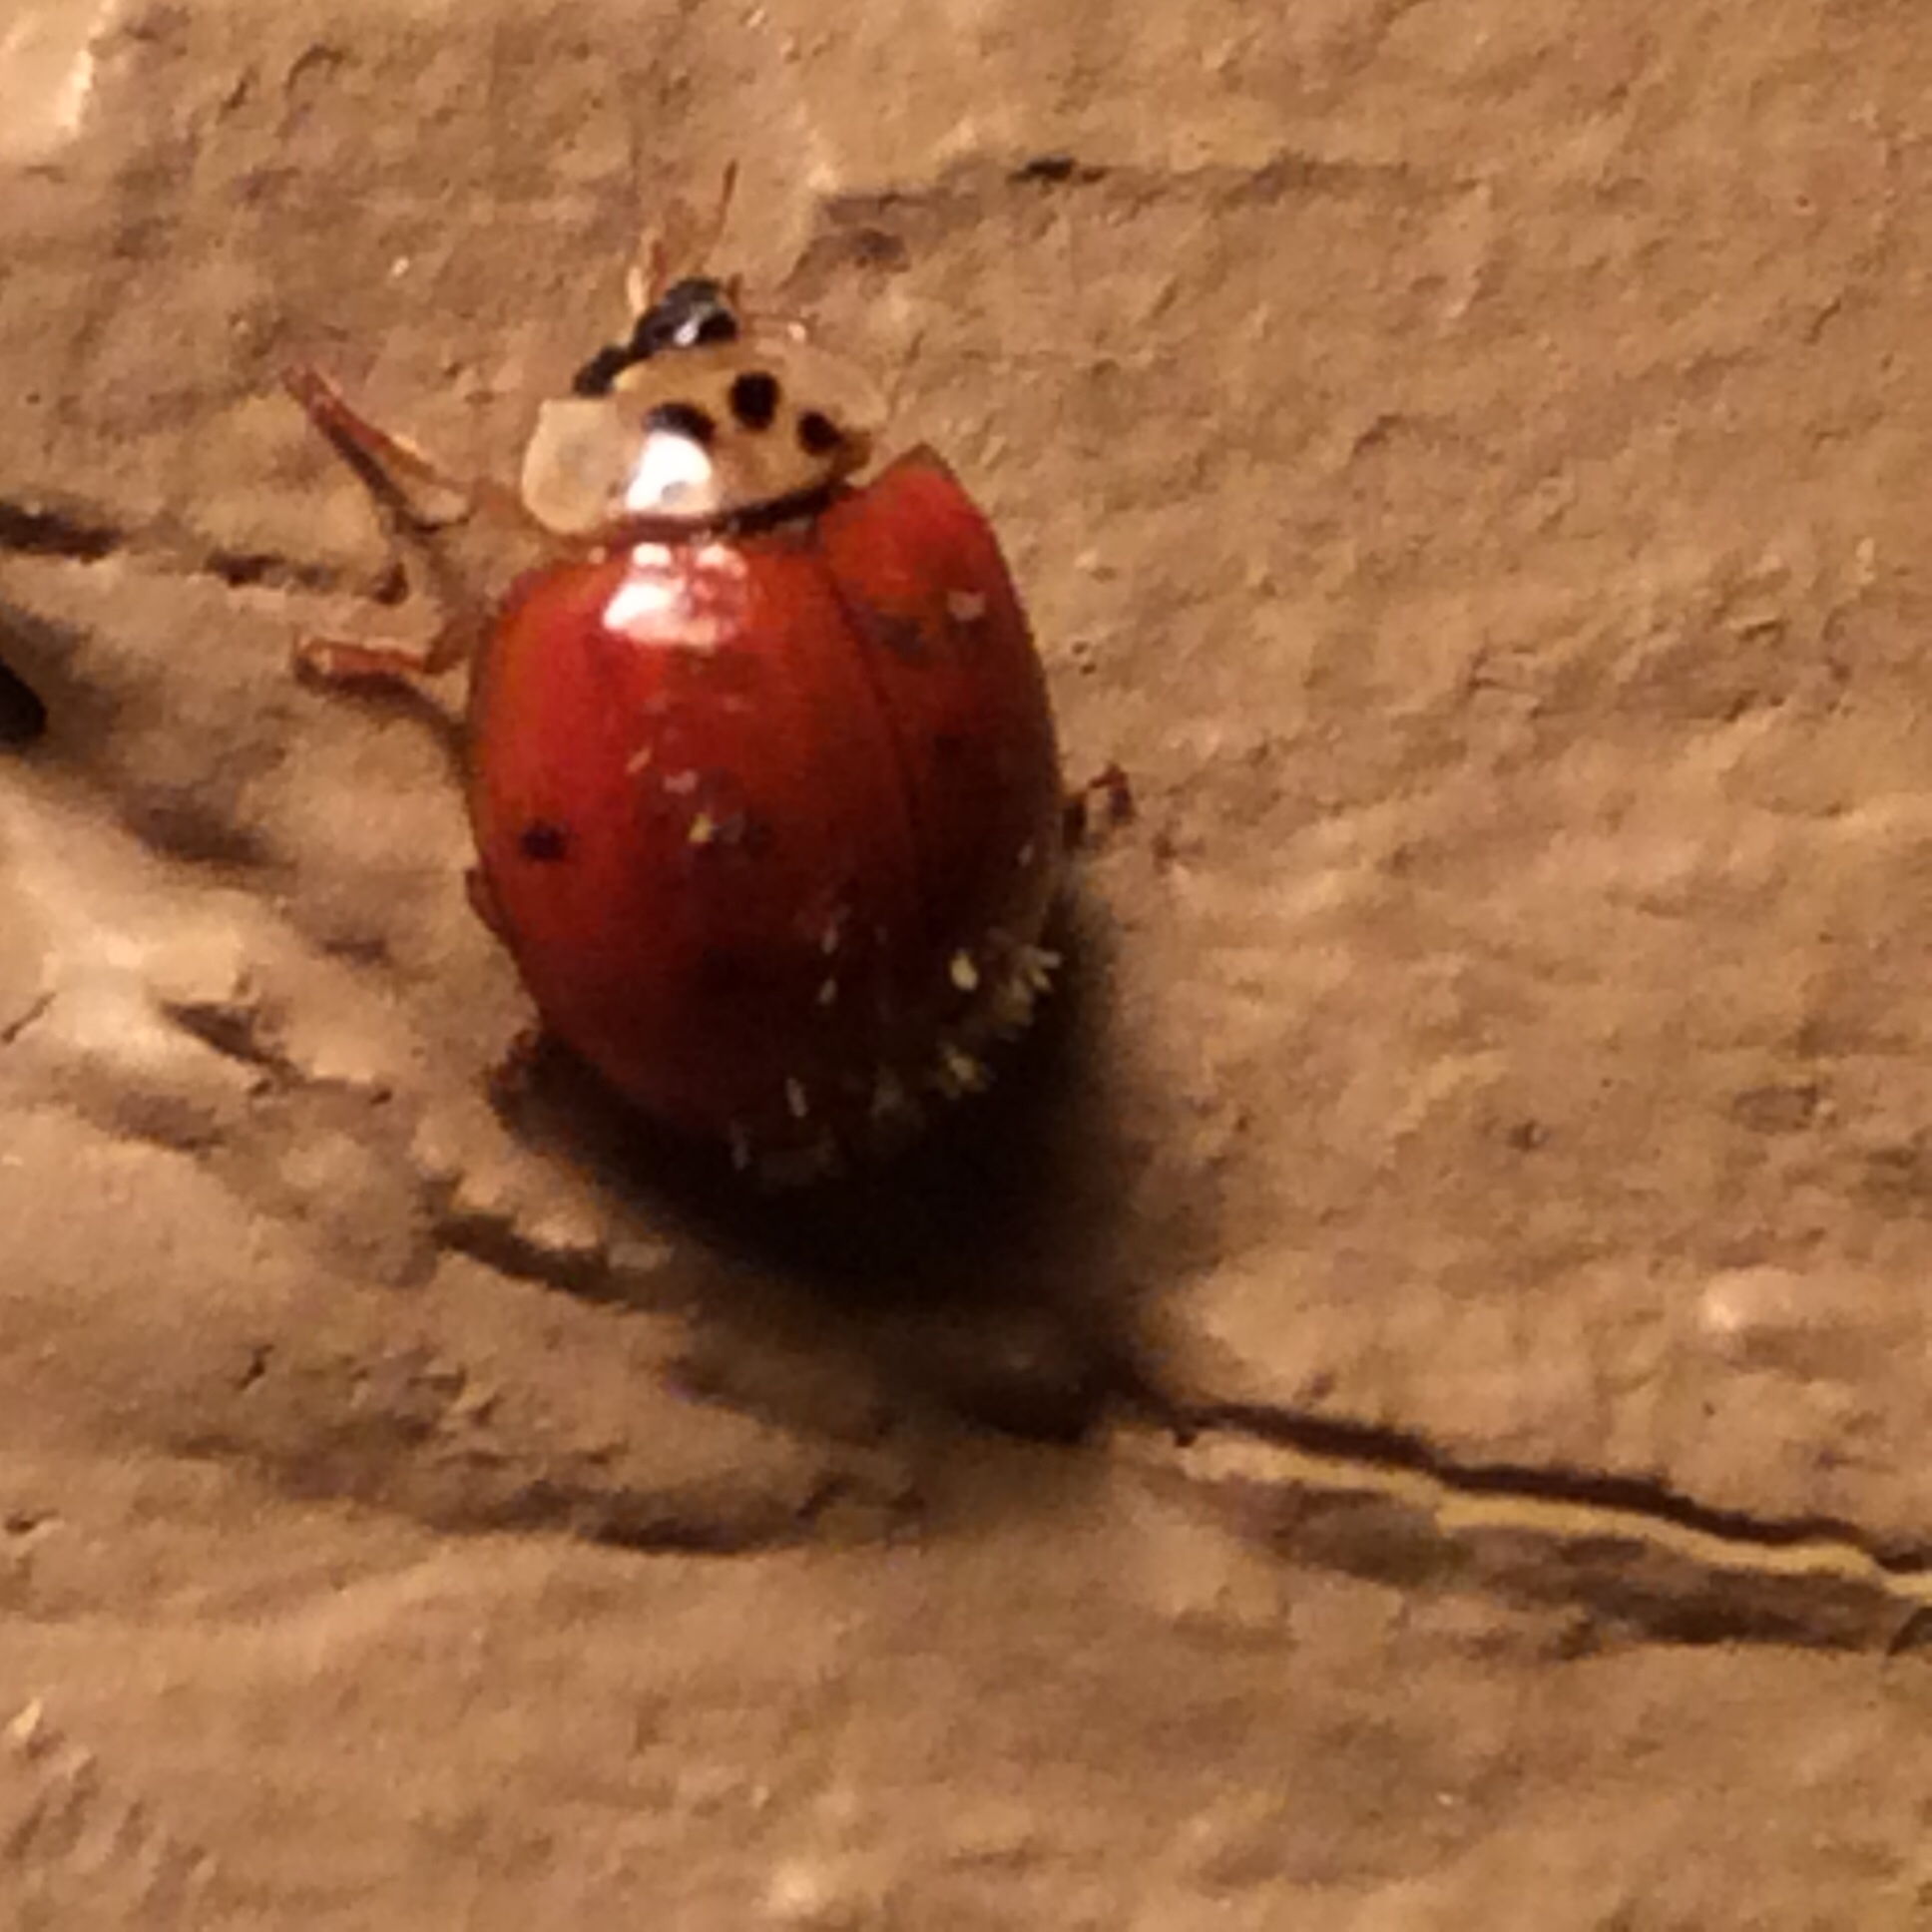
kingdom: Animalia
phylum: Arthropoda
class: Insecta
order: Coleoptera
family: Coccinellidae
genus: Harmonia
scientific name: Harmonia axyridis
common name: Harlequin ladybird
